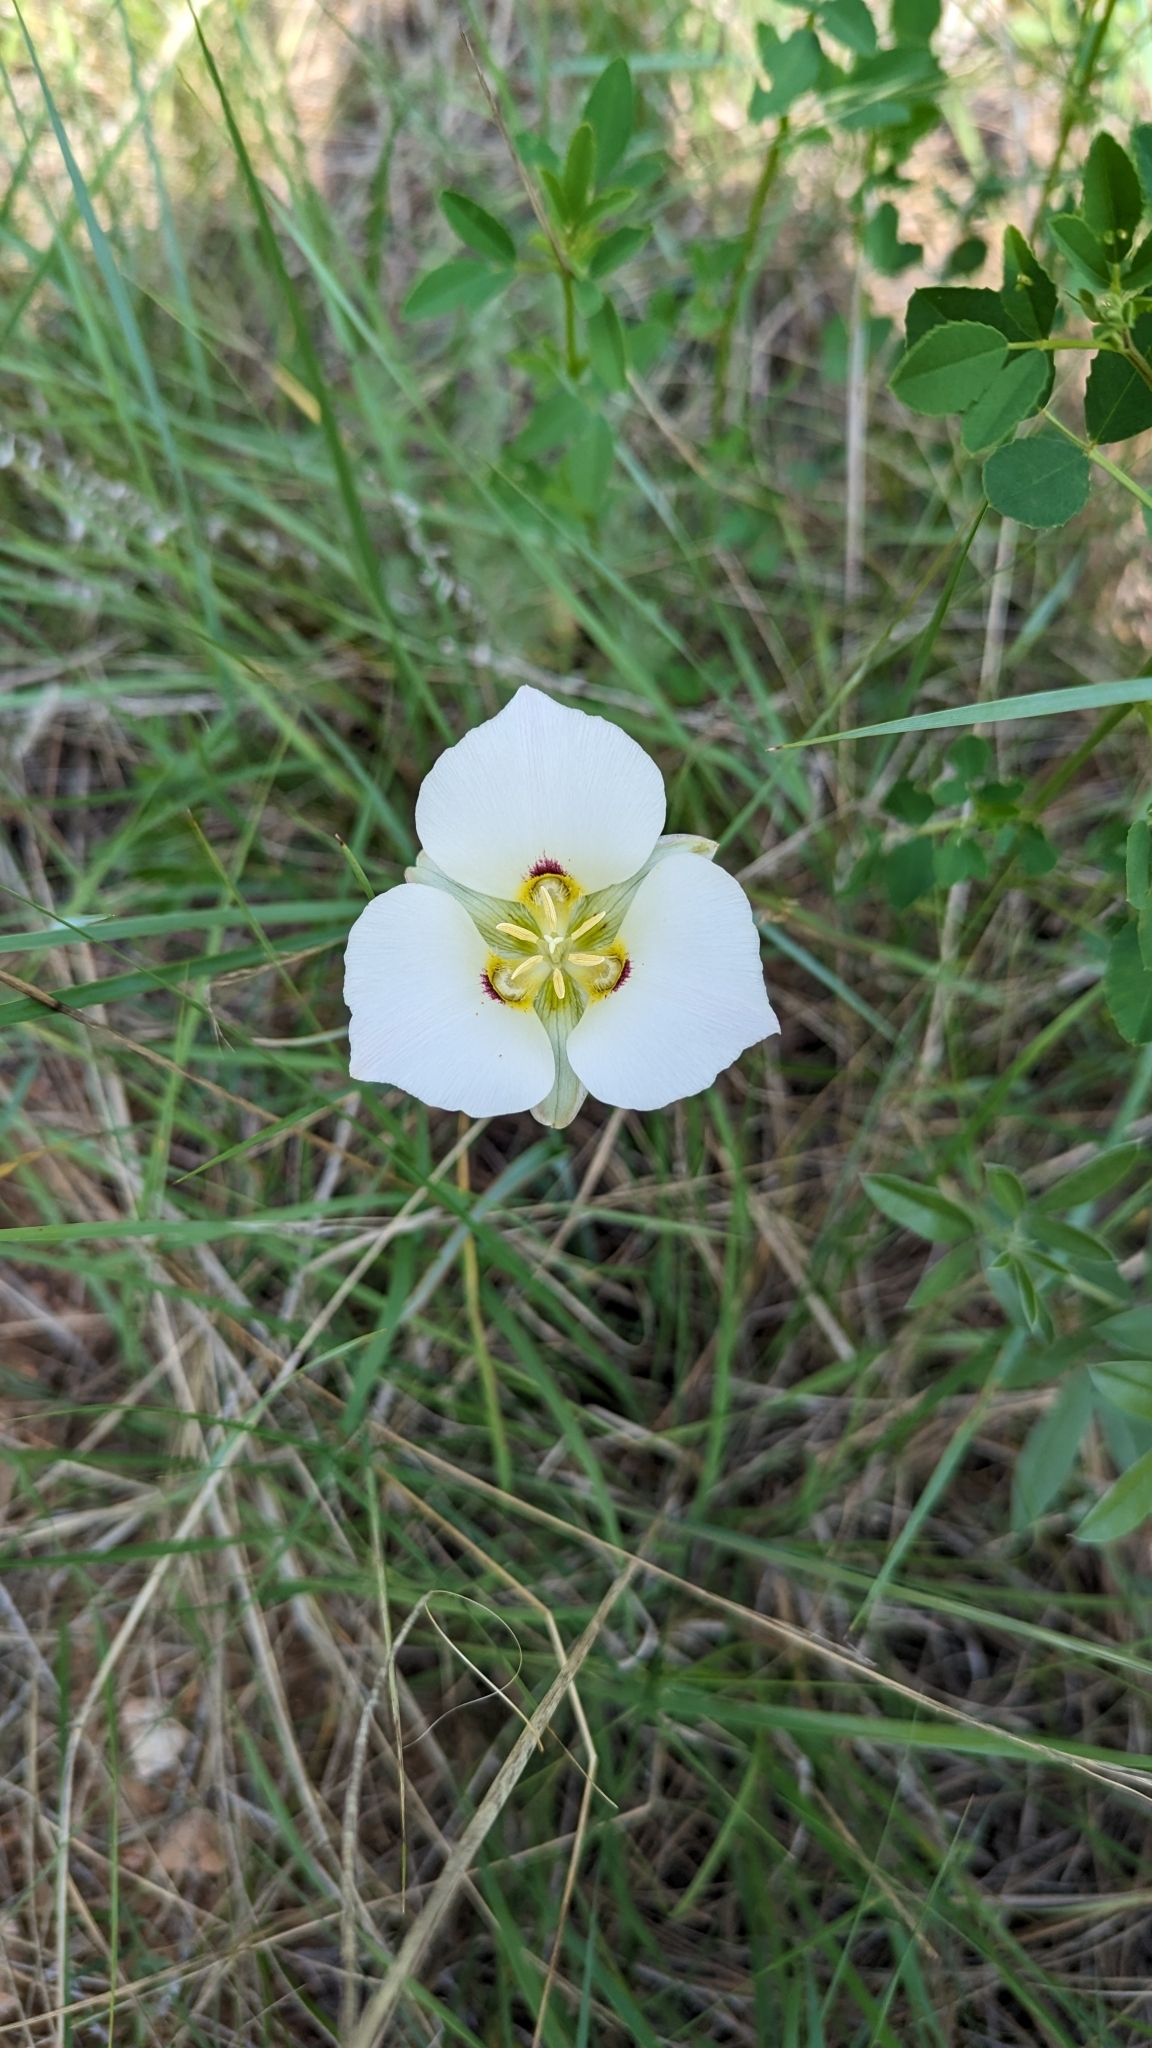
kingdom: Plantae
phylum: Tracheophyta
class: Liliopsida
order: Liliales
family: Liliaceae
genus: Calochortus
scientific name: Calochortus nuttallii
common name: Sego-lily
